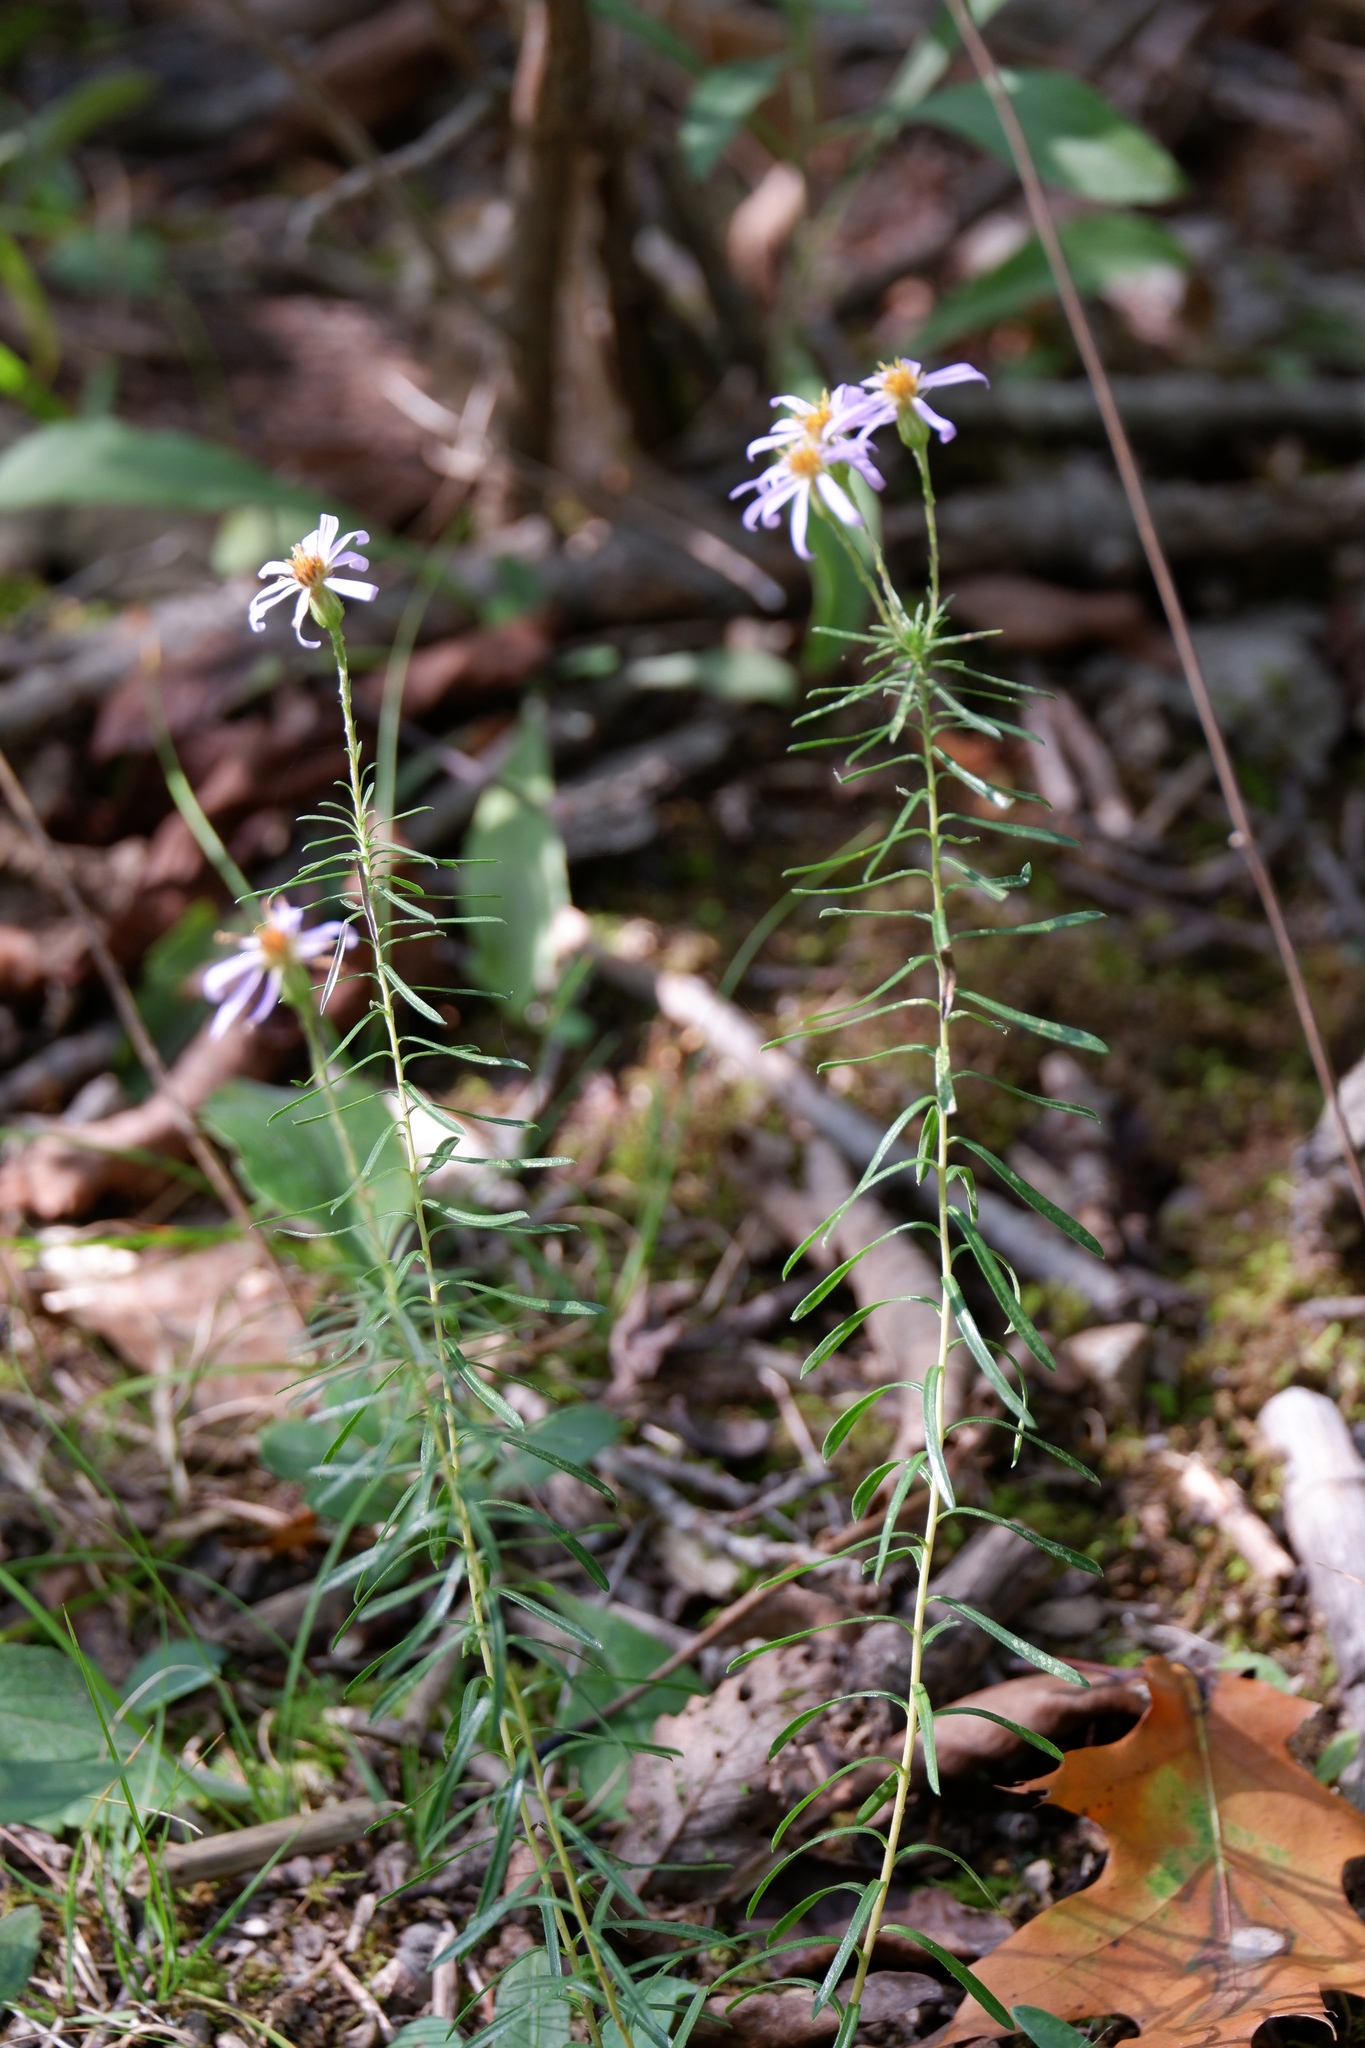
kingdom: Plantae
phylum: Tracheophyta
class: Magnoliopsida
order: Asterales
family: Asteraceae
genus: Ionactis
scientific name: Ionactis linariifolia
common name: Flax-leaf aster
